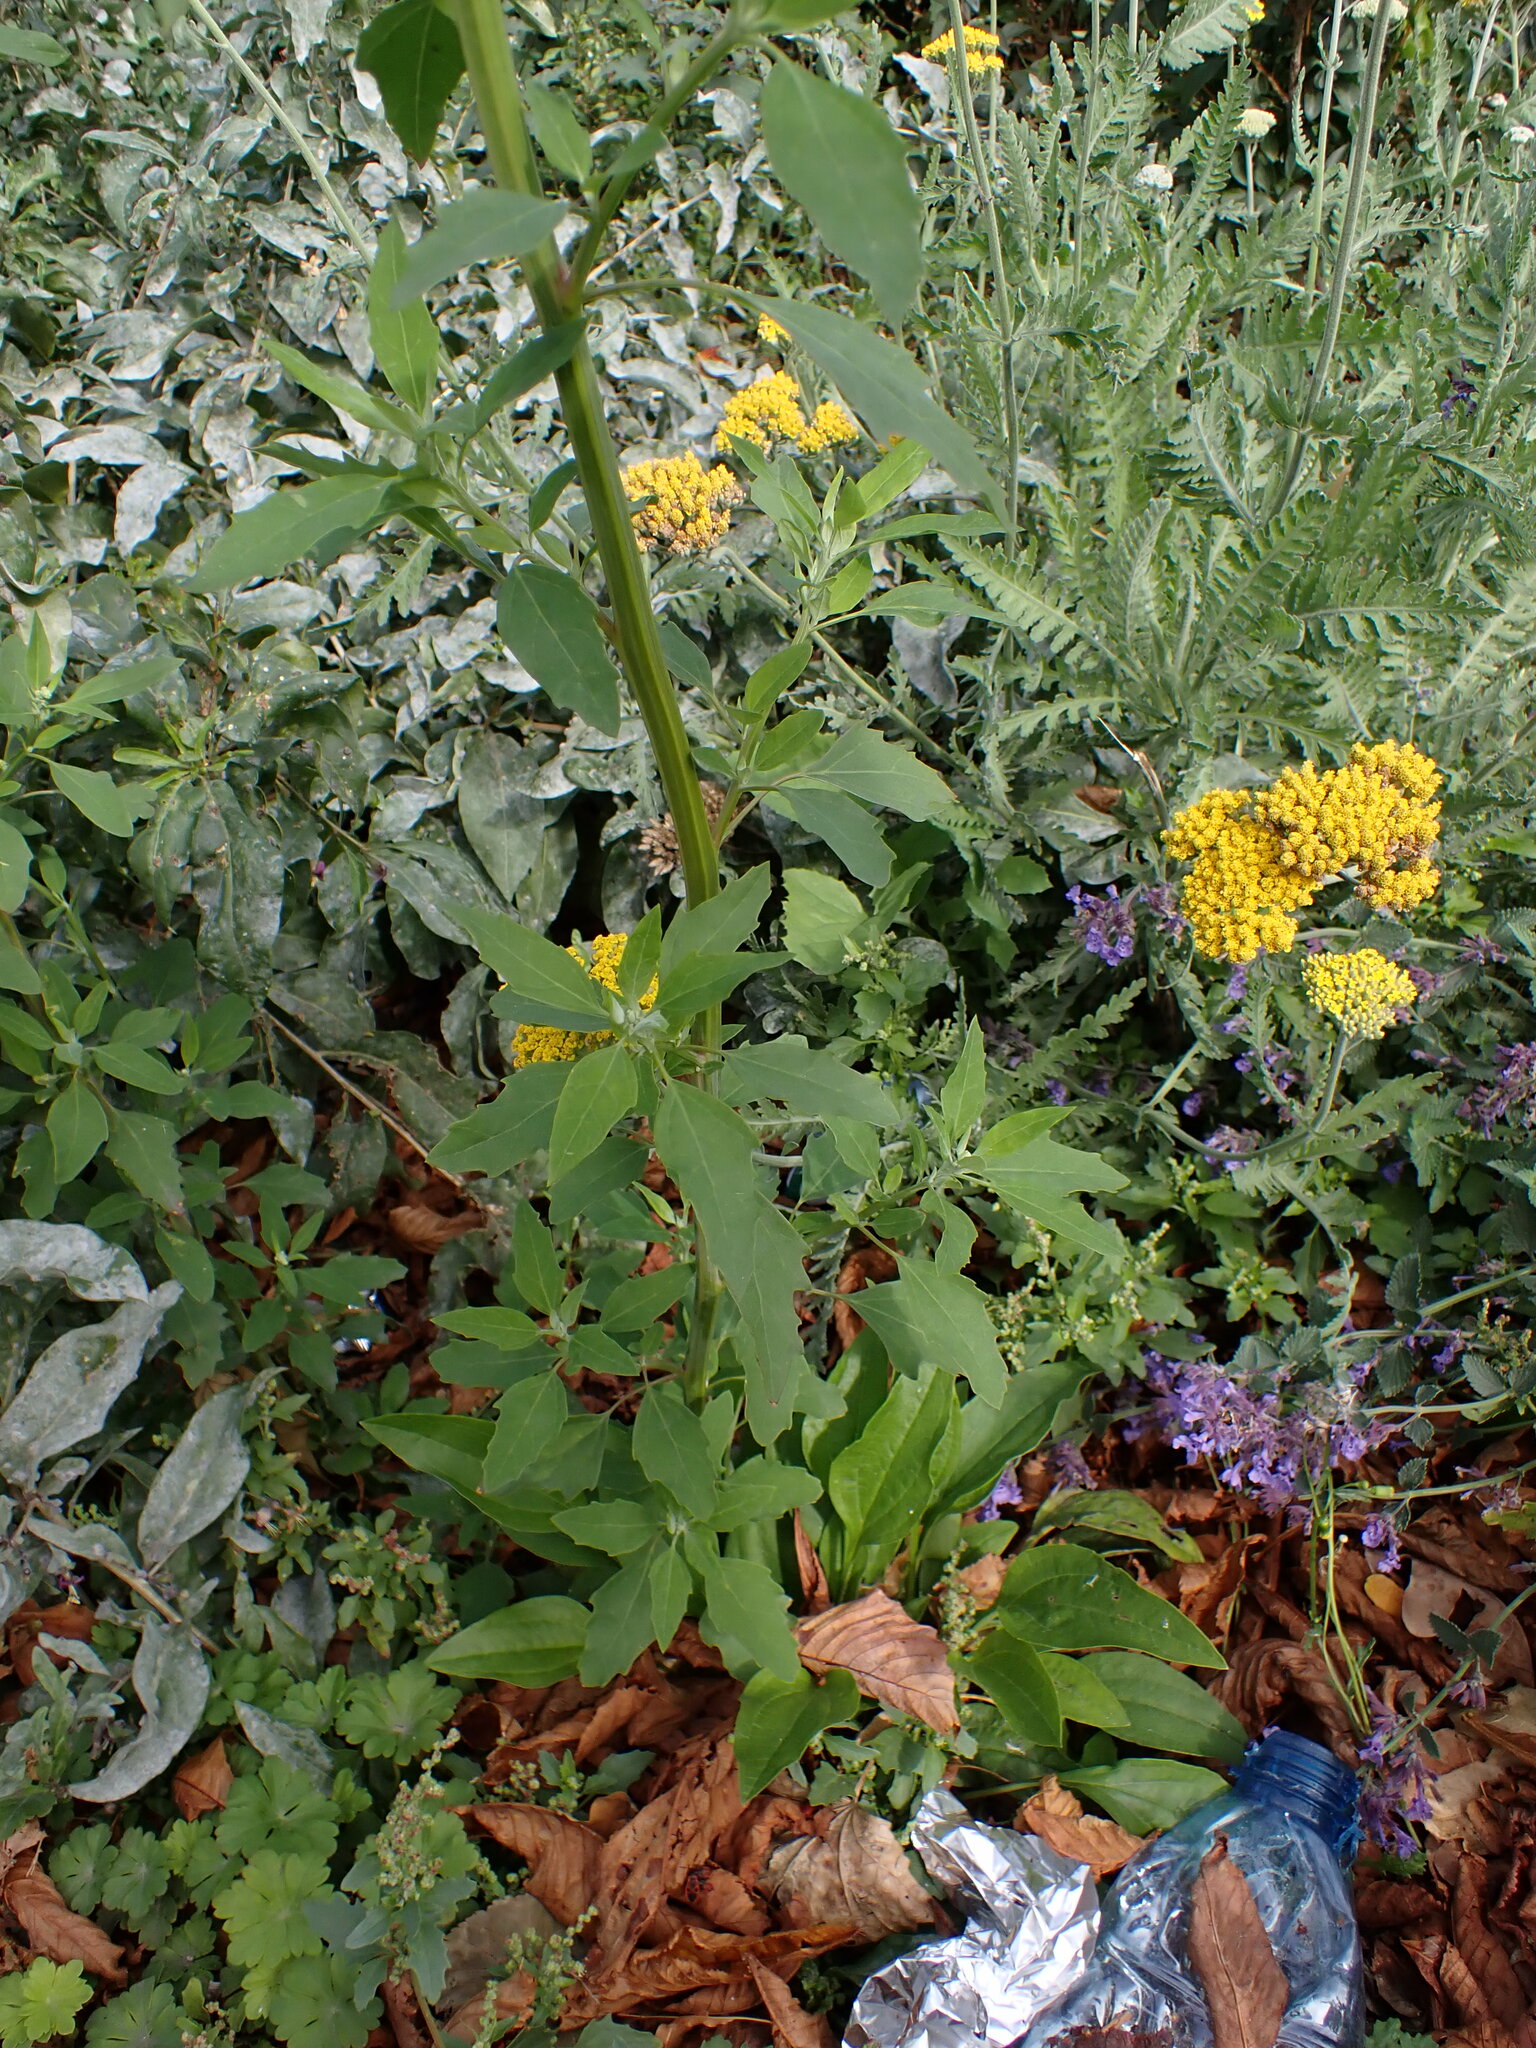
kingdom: Plantae
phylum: Tracheophyta
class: Magnoliopsida
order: Caryophyllales
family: Amaranthaceae
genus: Chenopodium
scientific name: Chenopodium album
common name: Fat-hen
